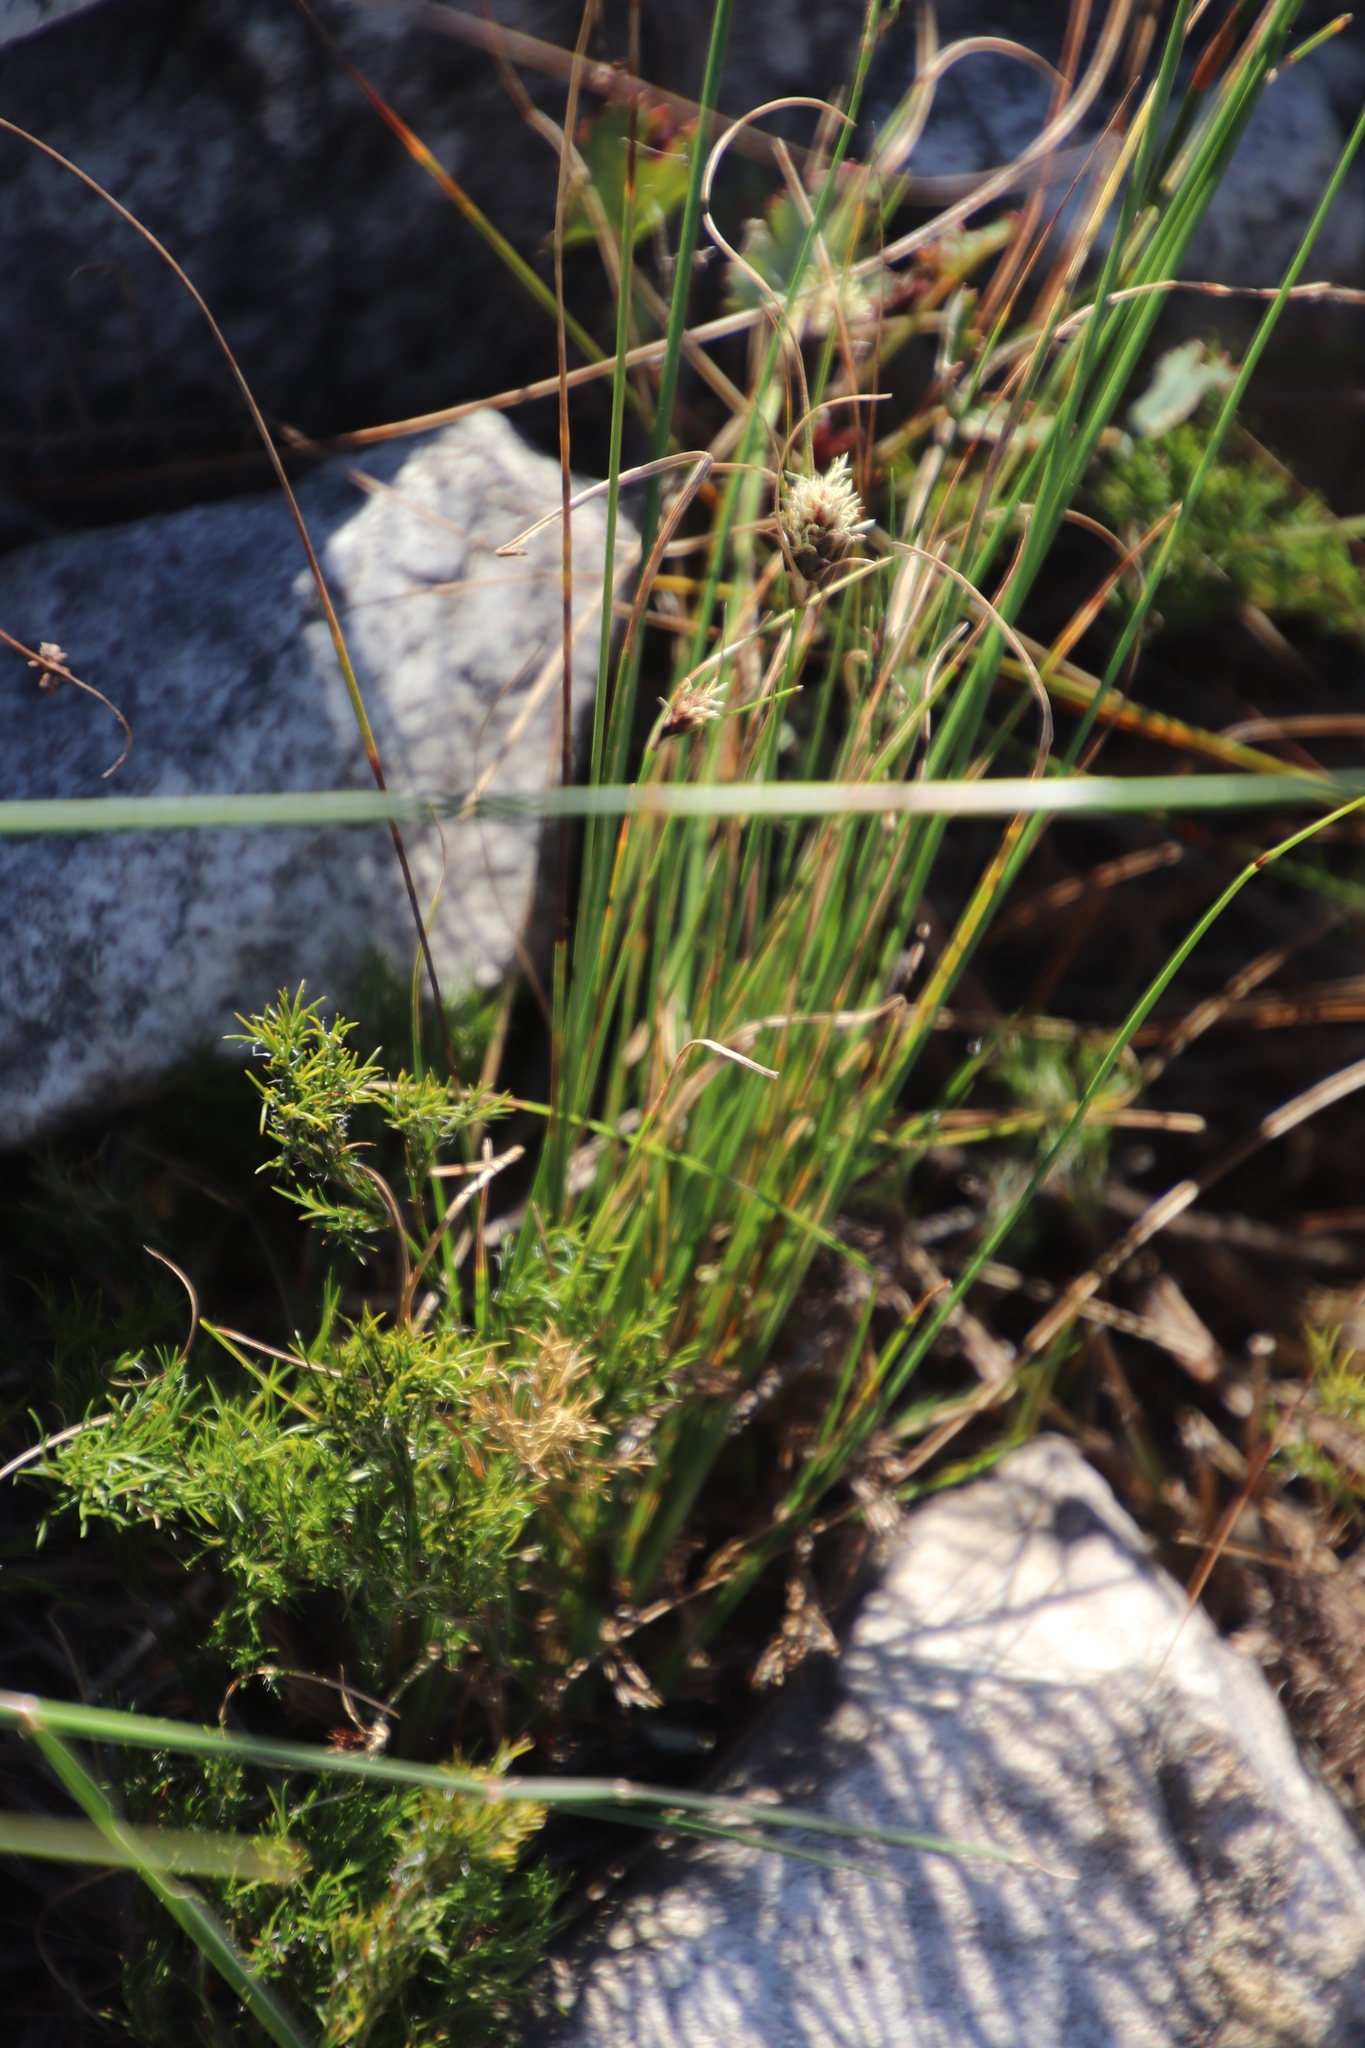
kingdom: Plantae
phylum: Tracheophyta
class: Liliopsida
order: Poales
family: Cyperaceae
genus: Ficinia
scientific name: Ficinia nigrescens
